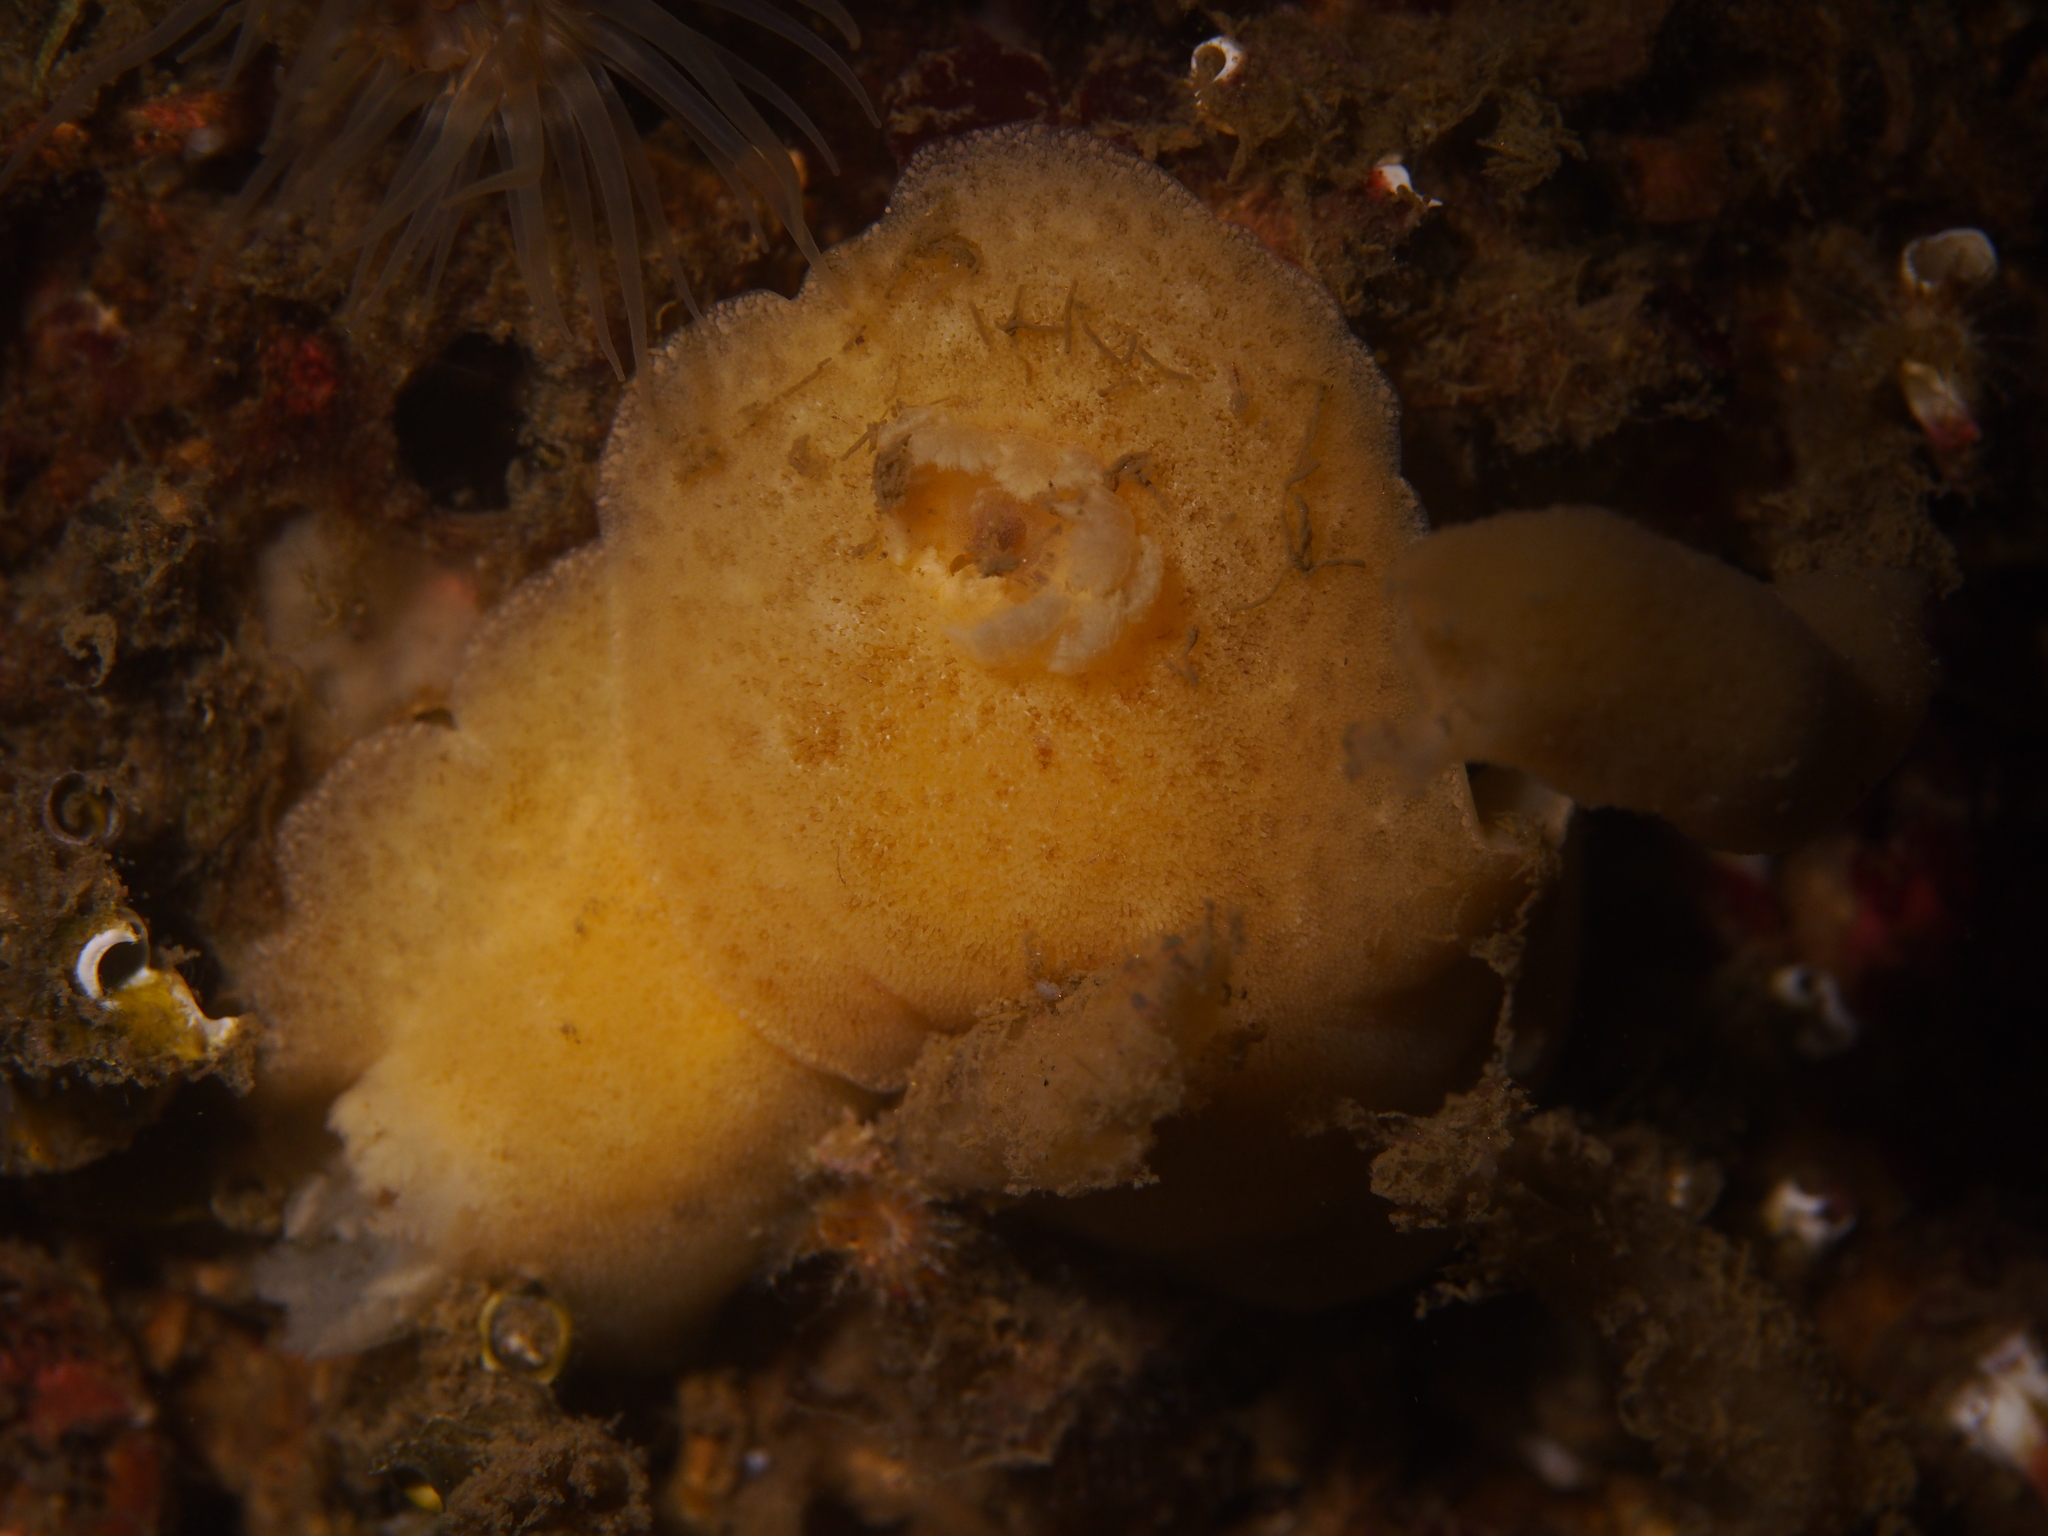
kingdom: Animalia
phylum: Mollusca
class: Gastropoda
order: Nudibranchia
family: Discodorididae
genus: Jorunna
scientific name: Jorunna tomentosa
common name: Grey sea slug
